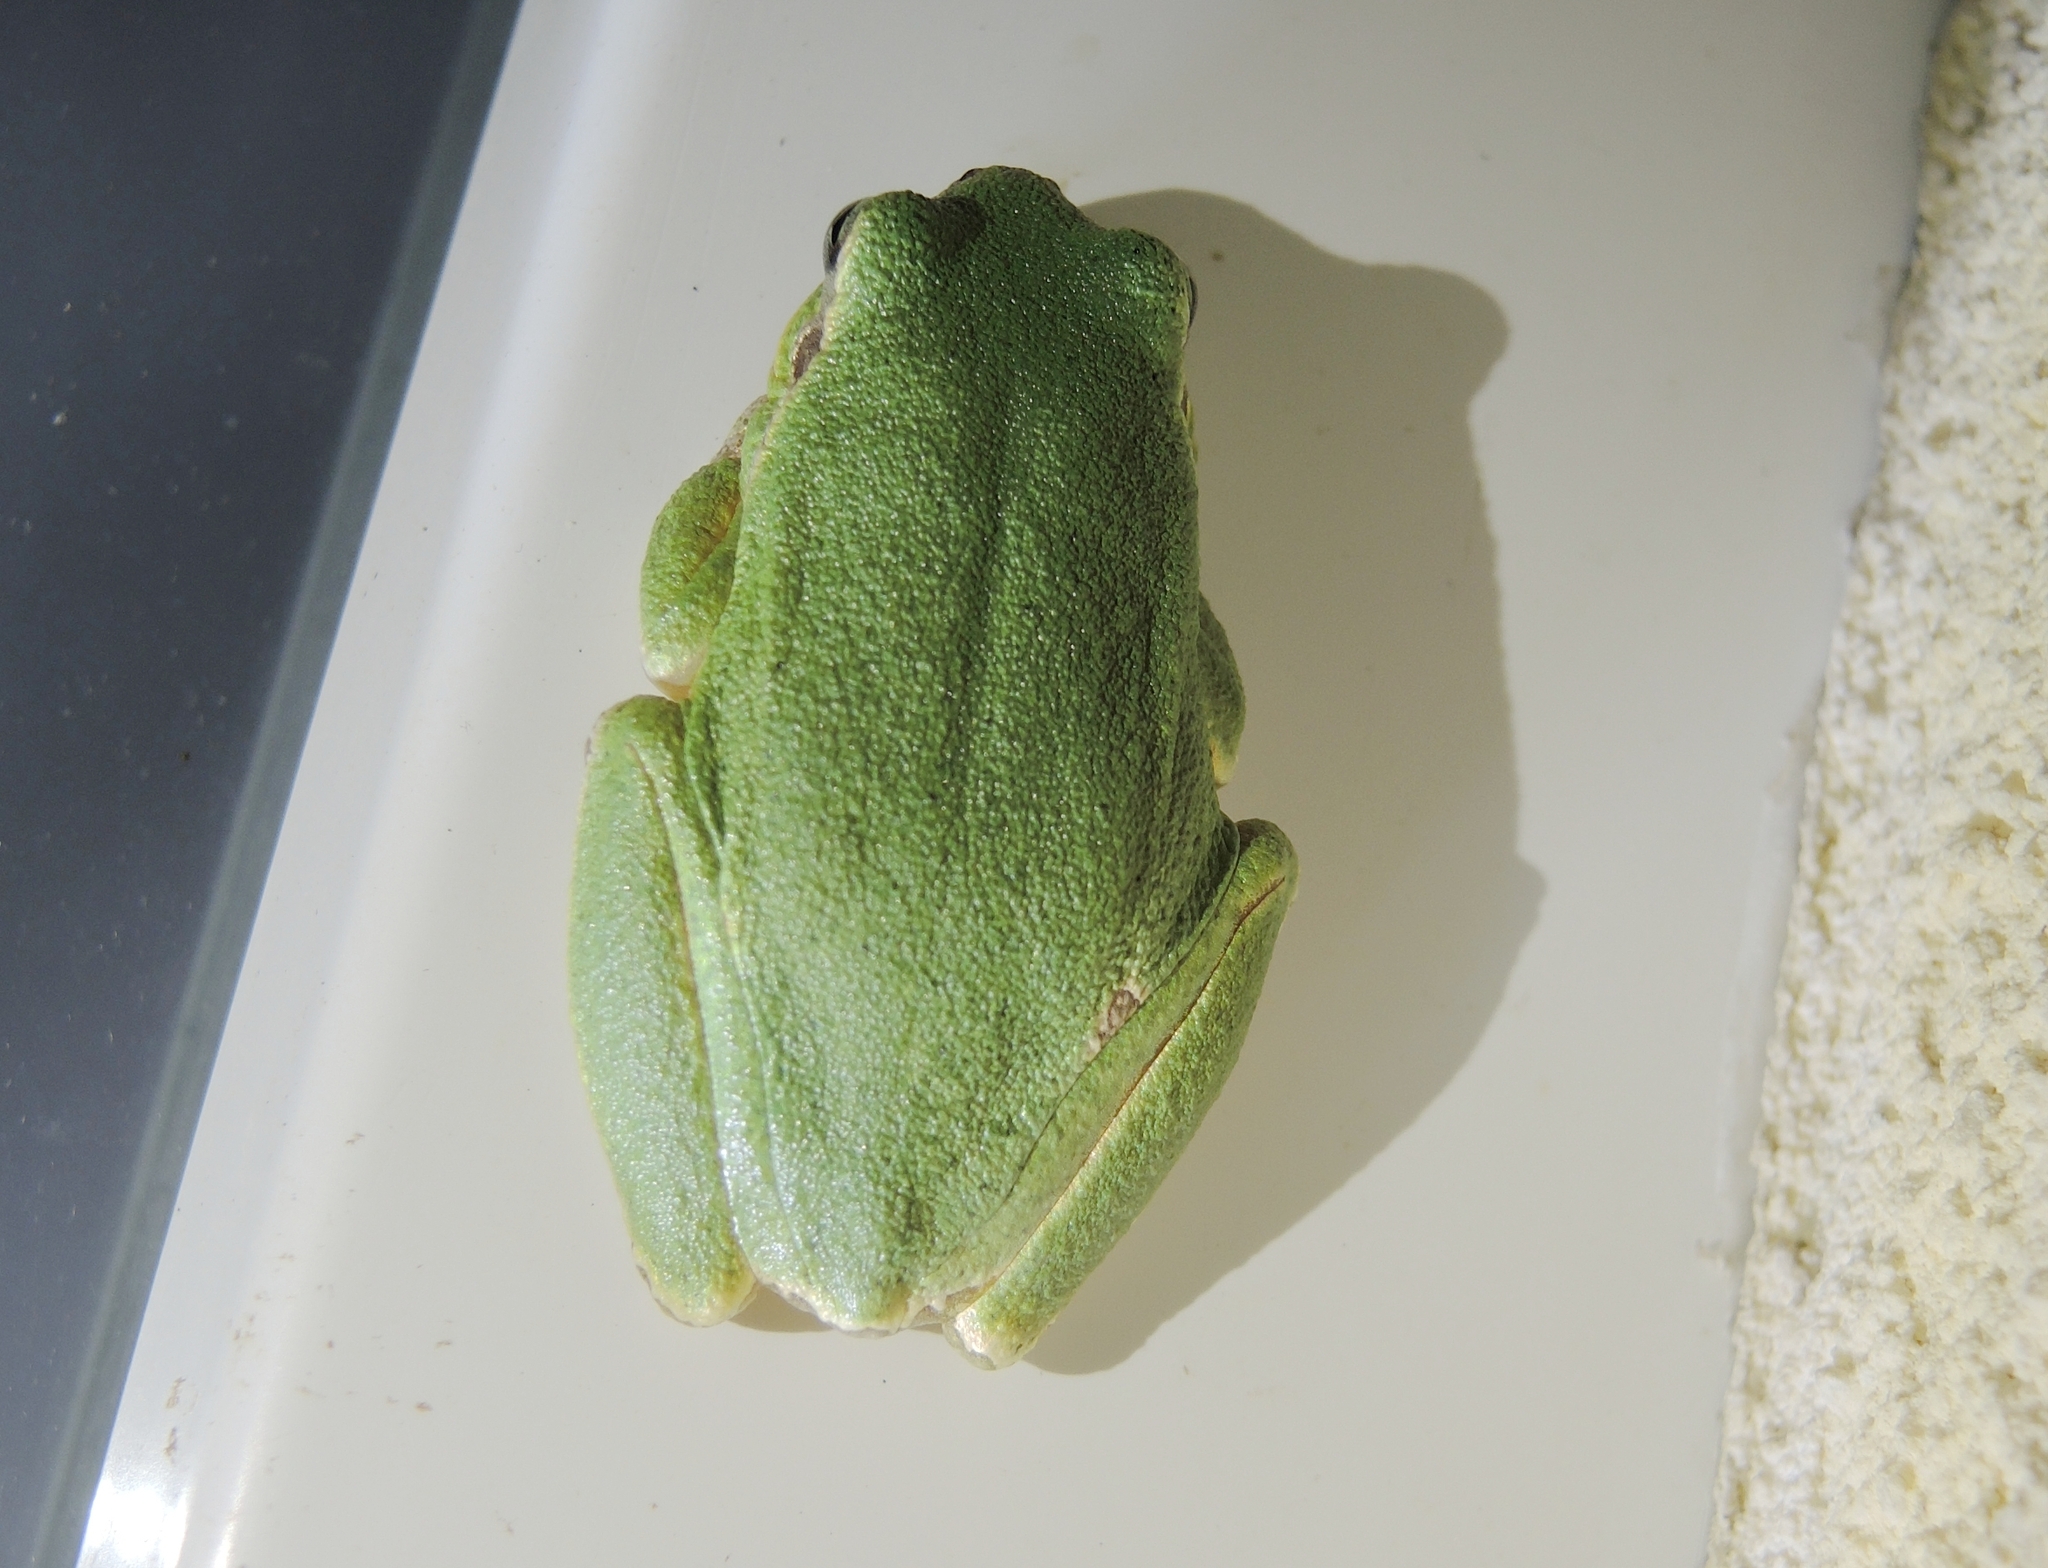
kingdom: Animalia
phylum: Chordata
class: Amphibia
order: Anura
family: Hylidae
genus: Hyla
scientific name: Hyla orientalis
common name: Caucasian treefrog
